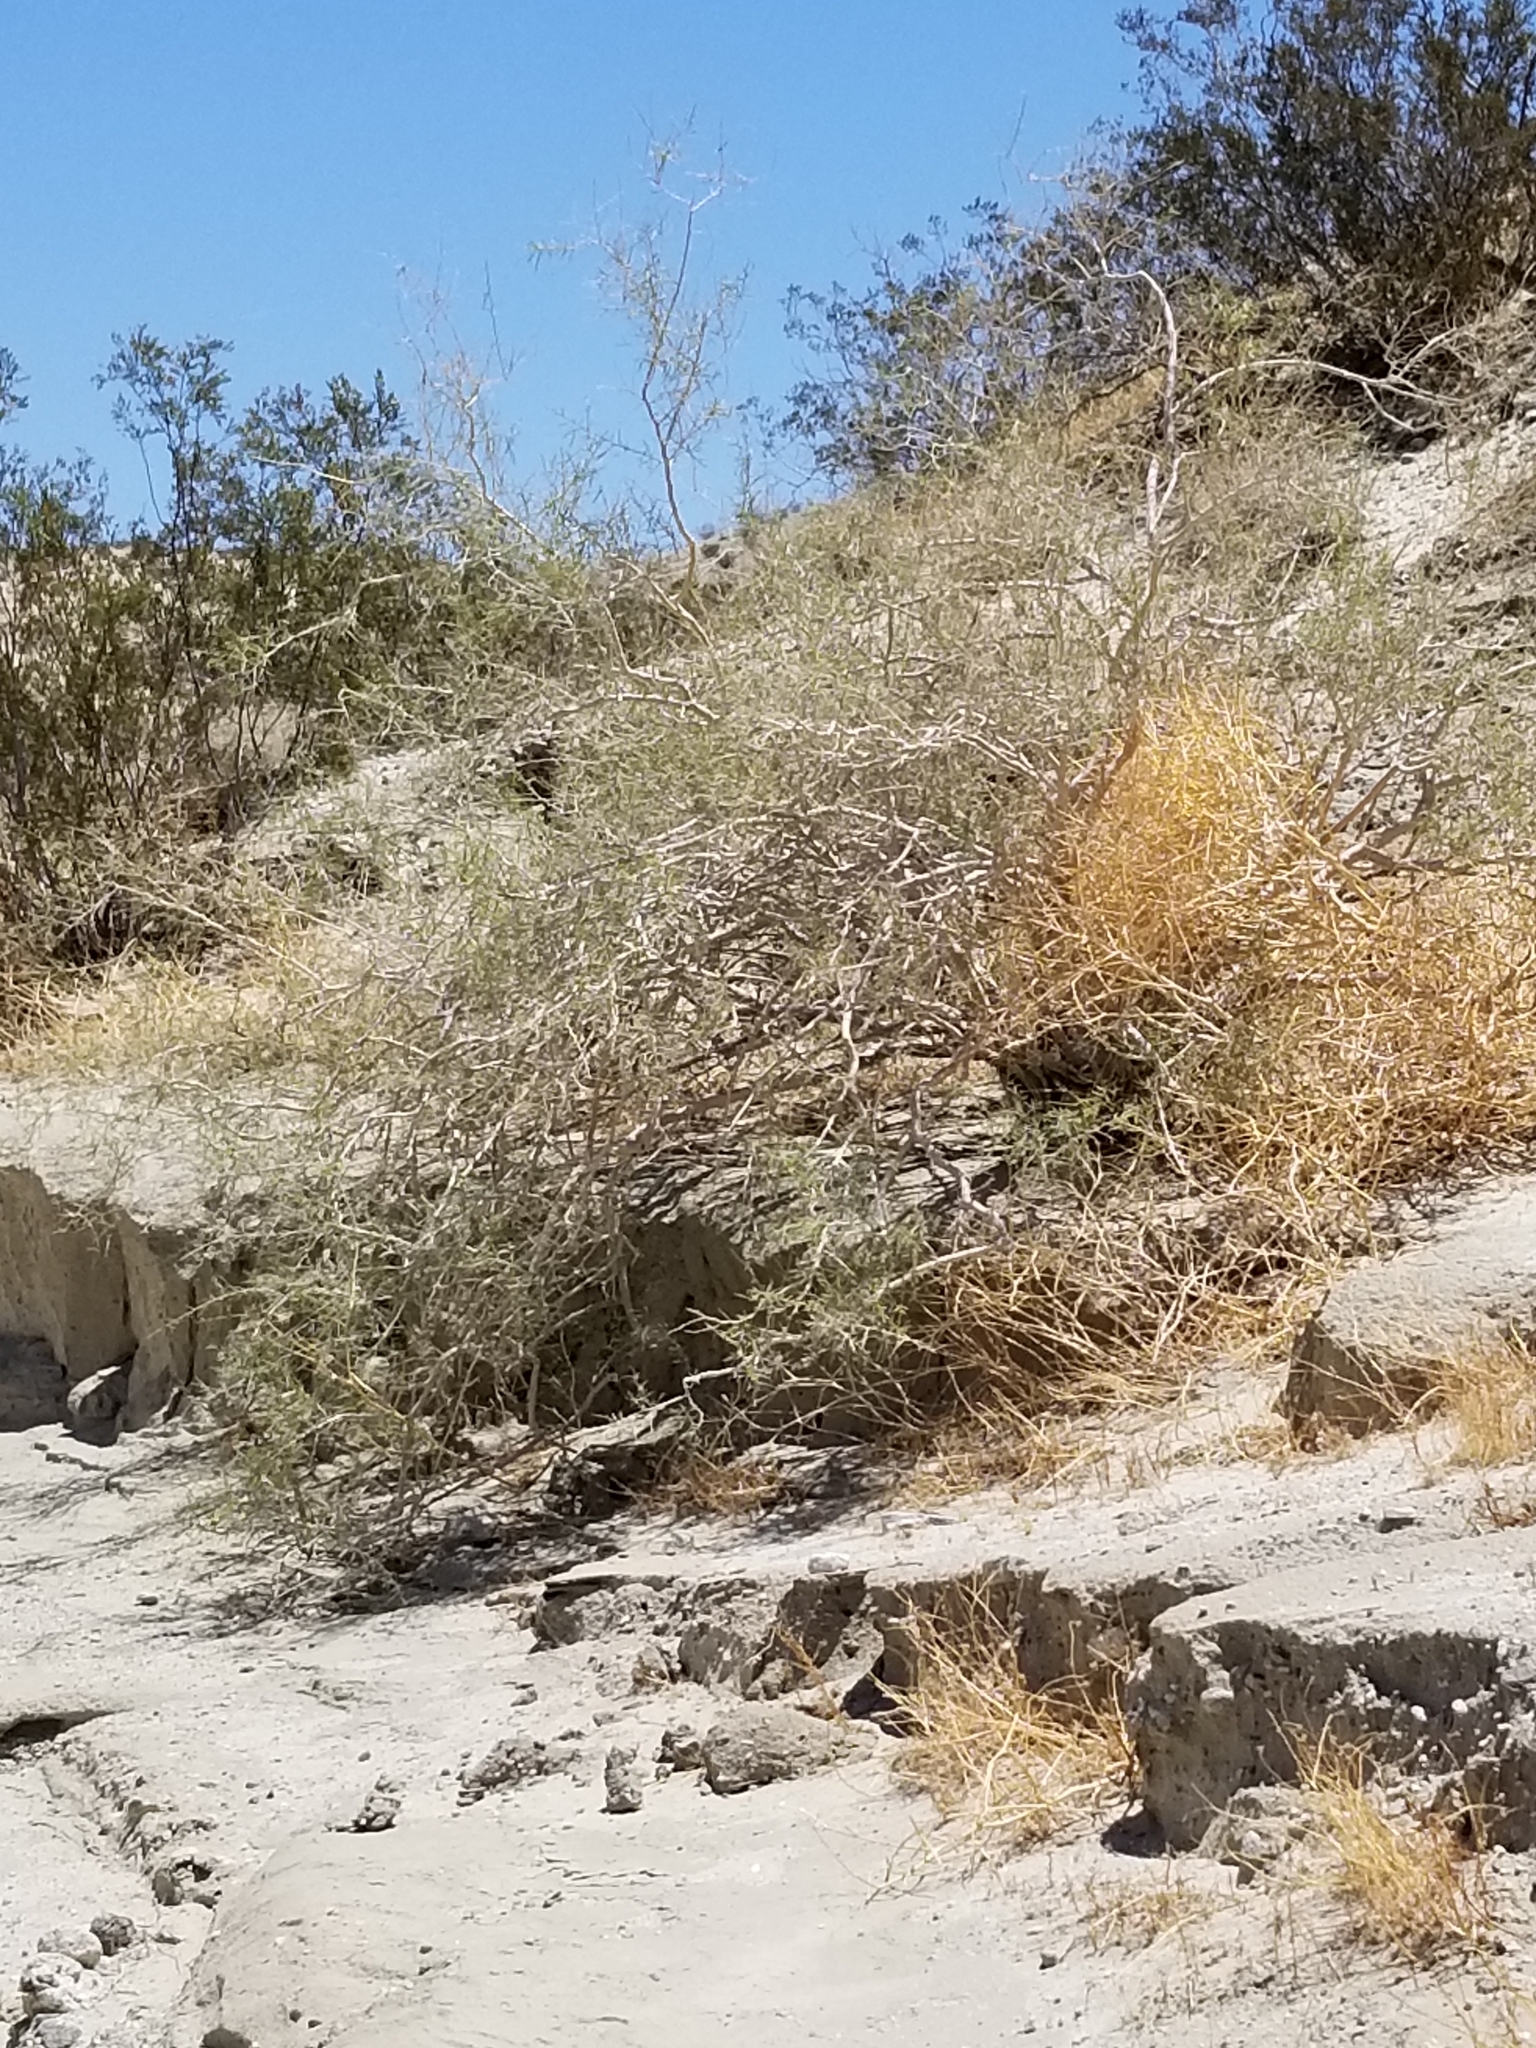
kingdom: Plantae
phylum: Tracheophyta
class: Magnoliopsida
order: Fabales
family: Fabaceae
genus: Psorothamnus
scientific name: Psorothamnus schottii
